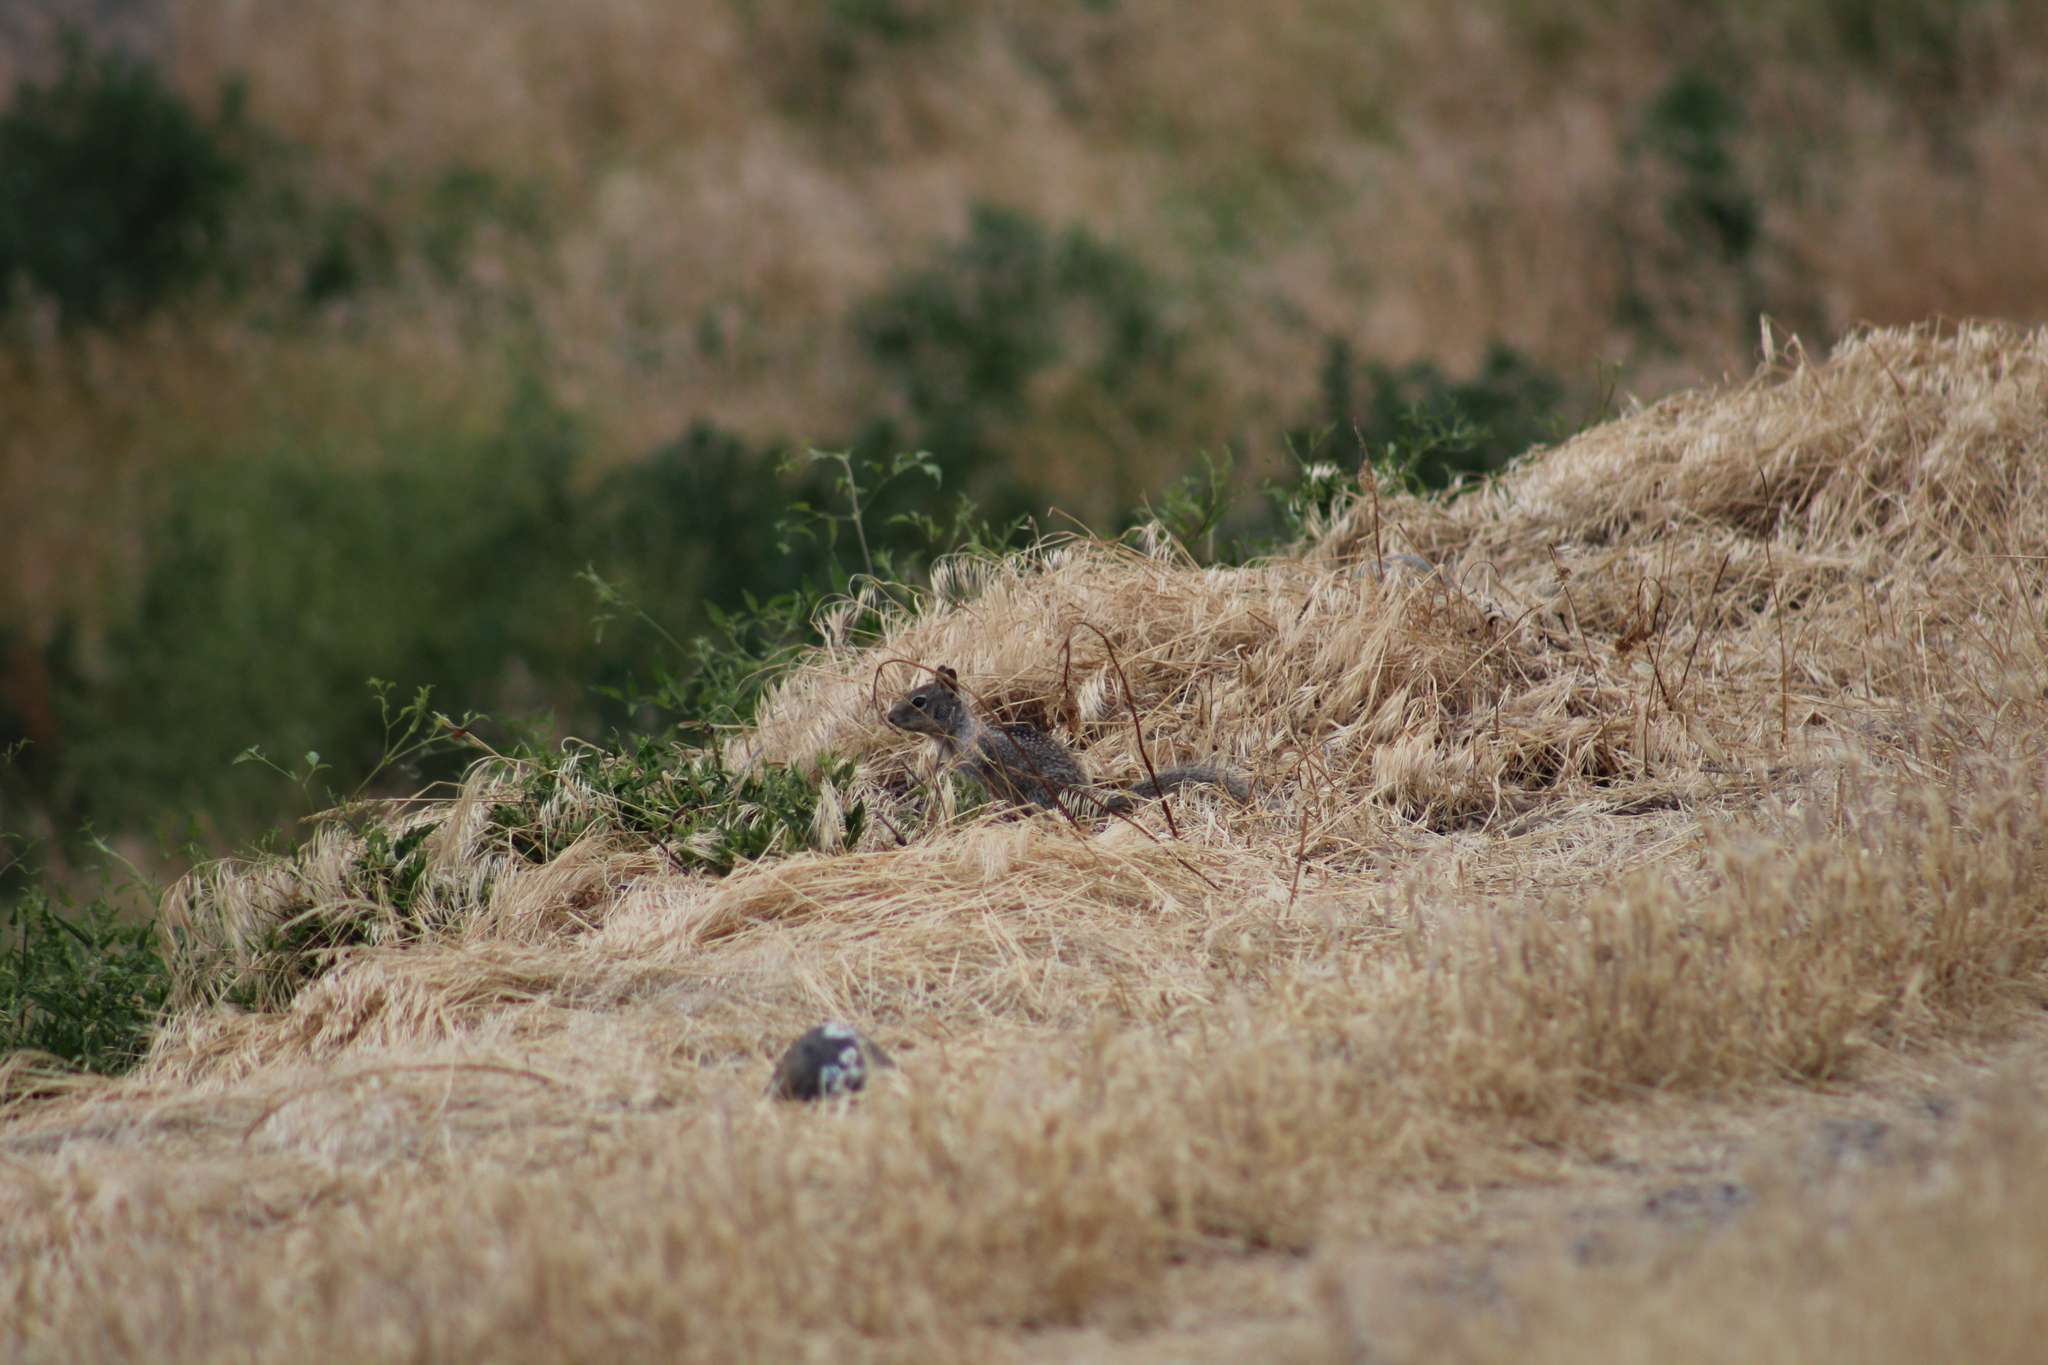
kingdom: Animalia
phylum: Chordata
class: Mammalia
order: Rodentia
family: Sciuridae
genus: Otospermophilus
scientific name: Otospermophilus beecheyi
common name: California ground squirrel
